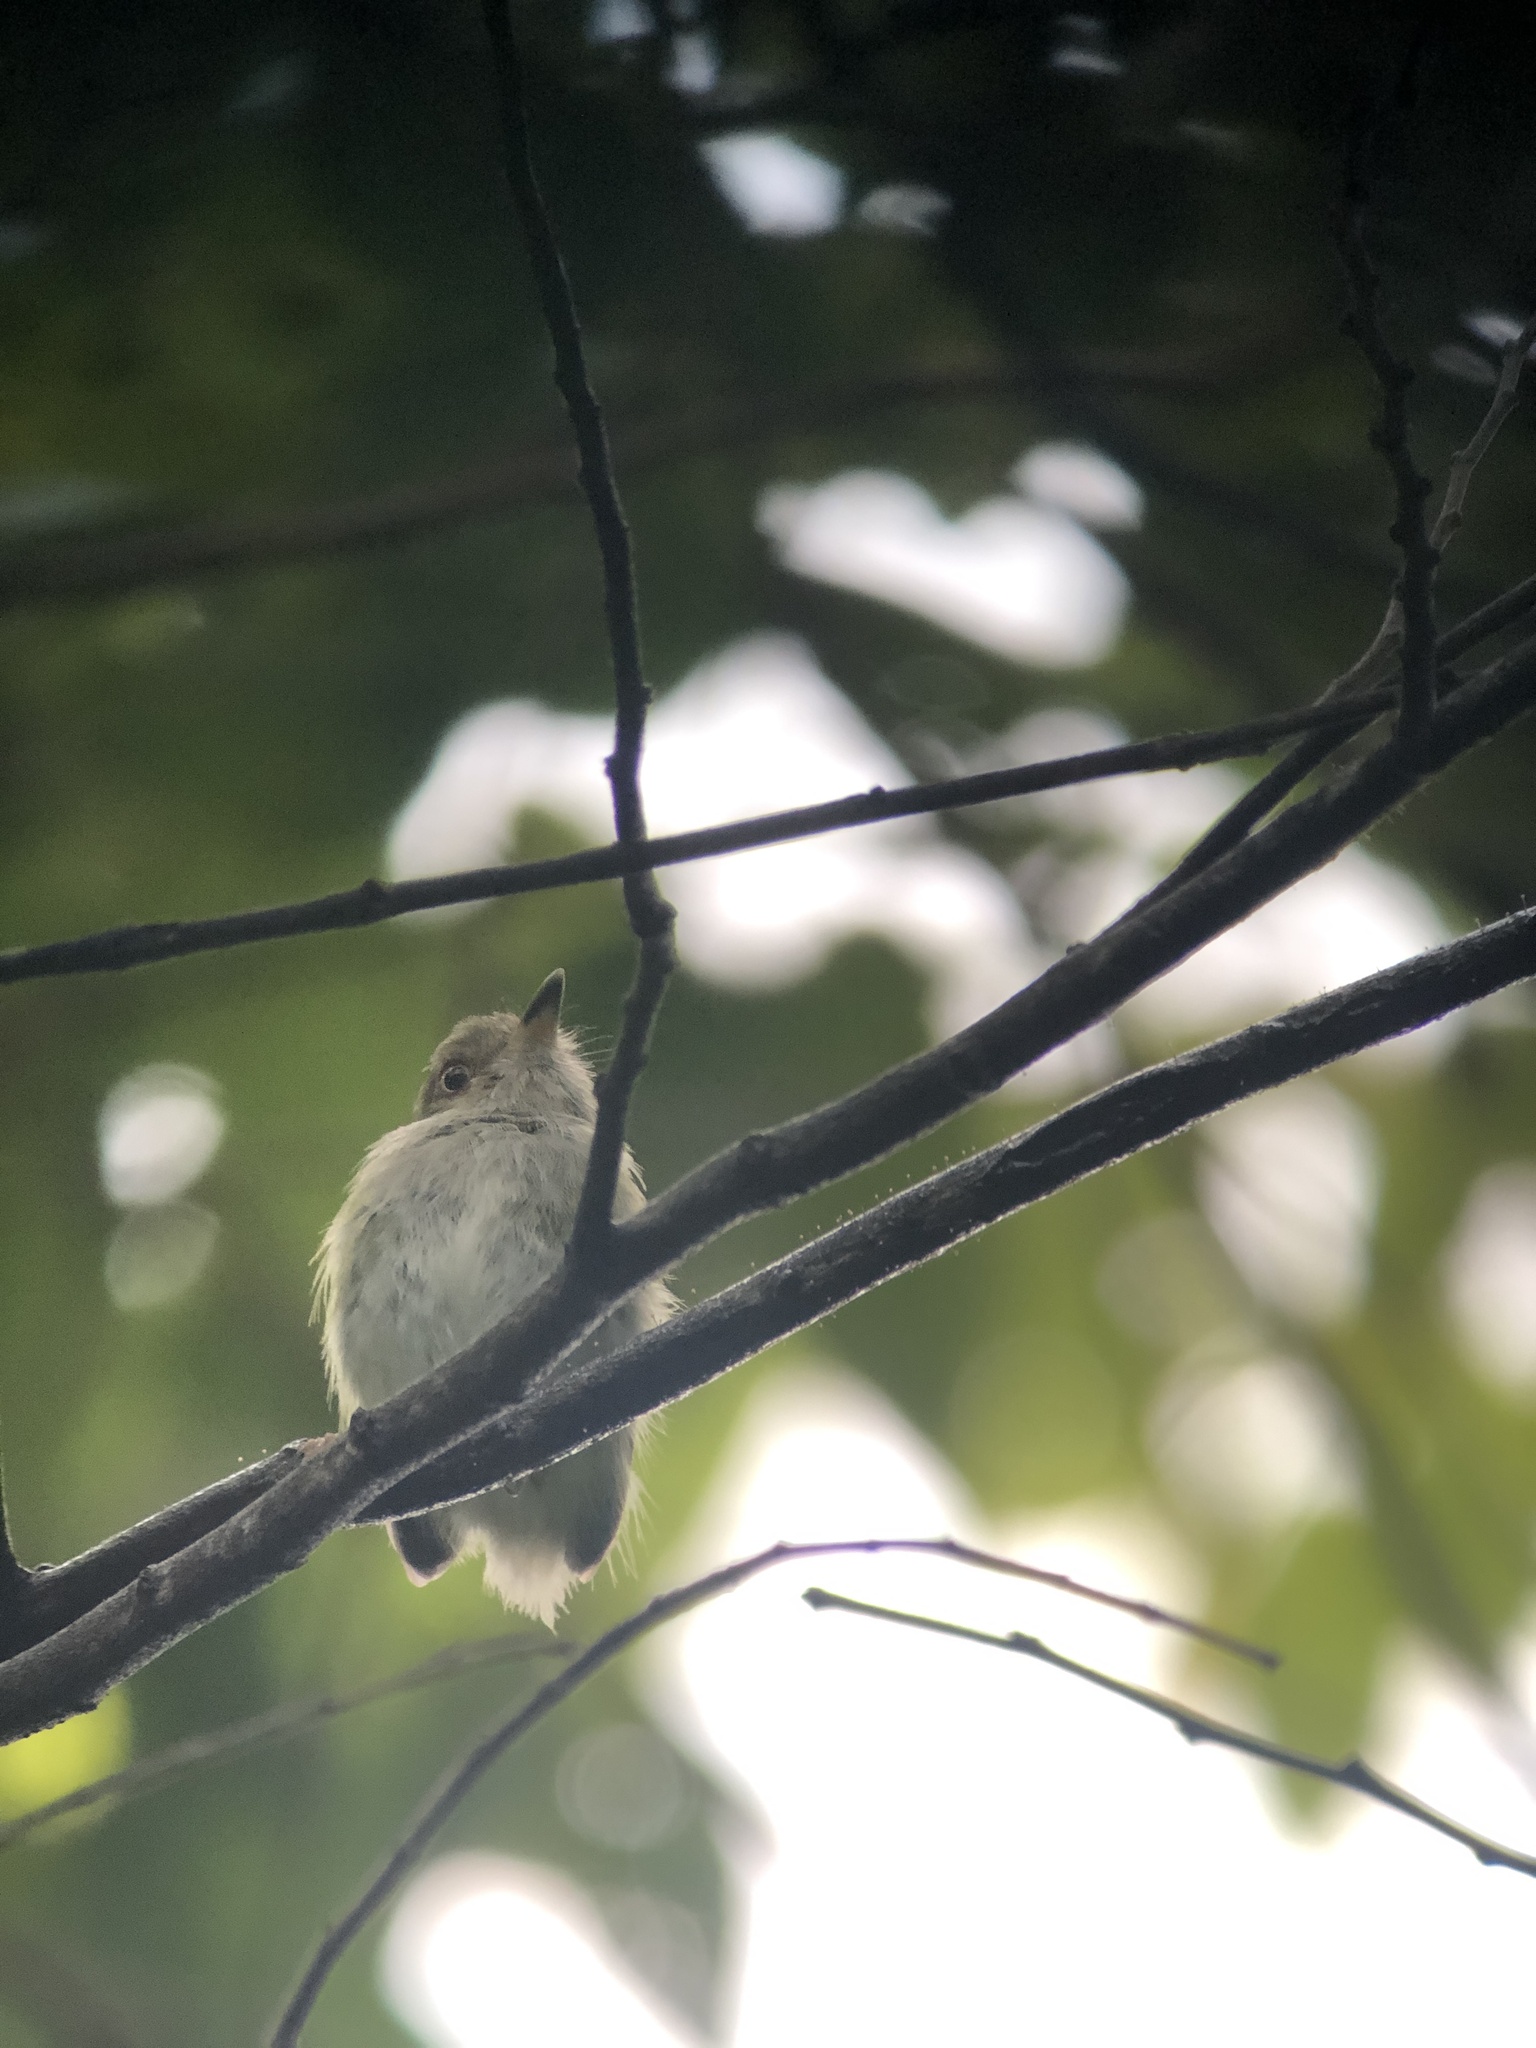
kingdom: Animalia
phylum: Chordata
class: Aves
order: Passeriformes
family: Tyrannidae
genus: Atalotriccus
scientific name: Atalotriccus pilaris
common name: Pale-eyed pygmy-tyrant
